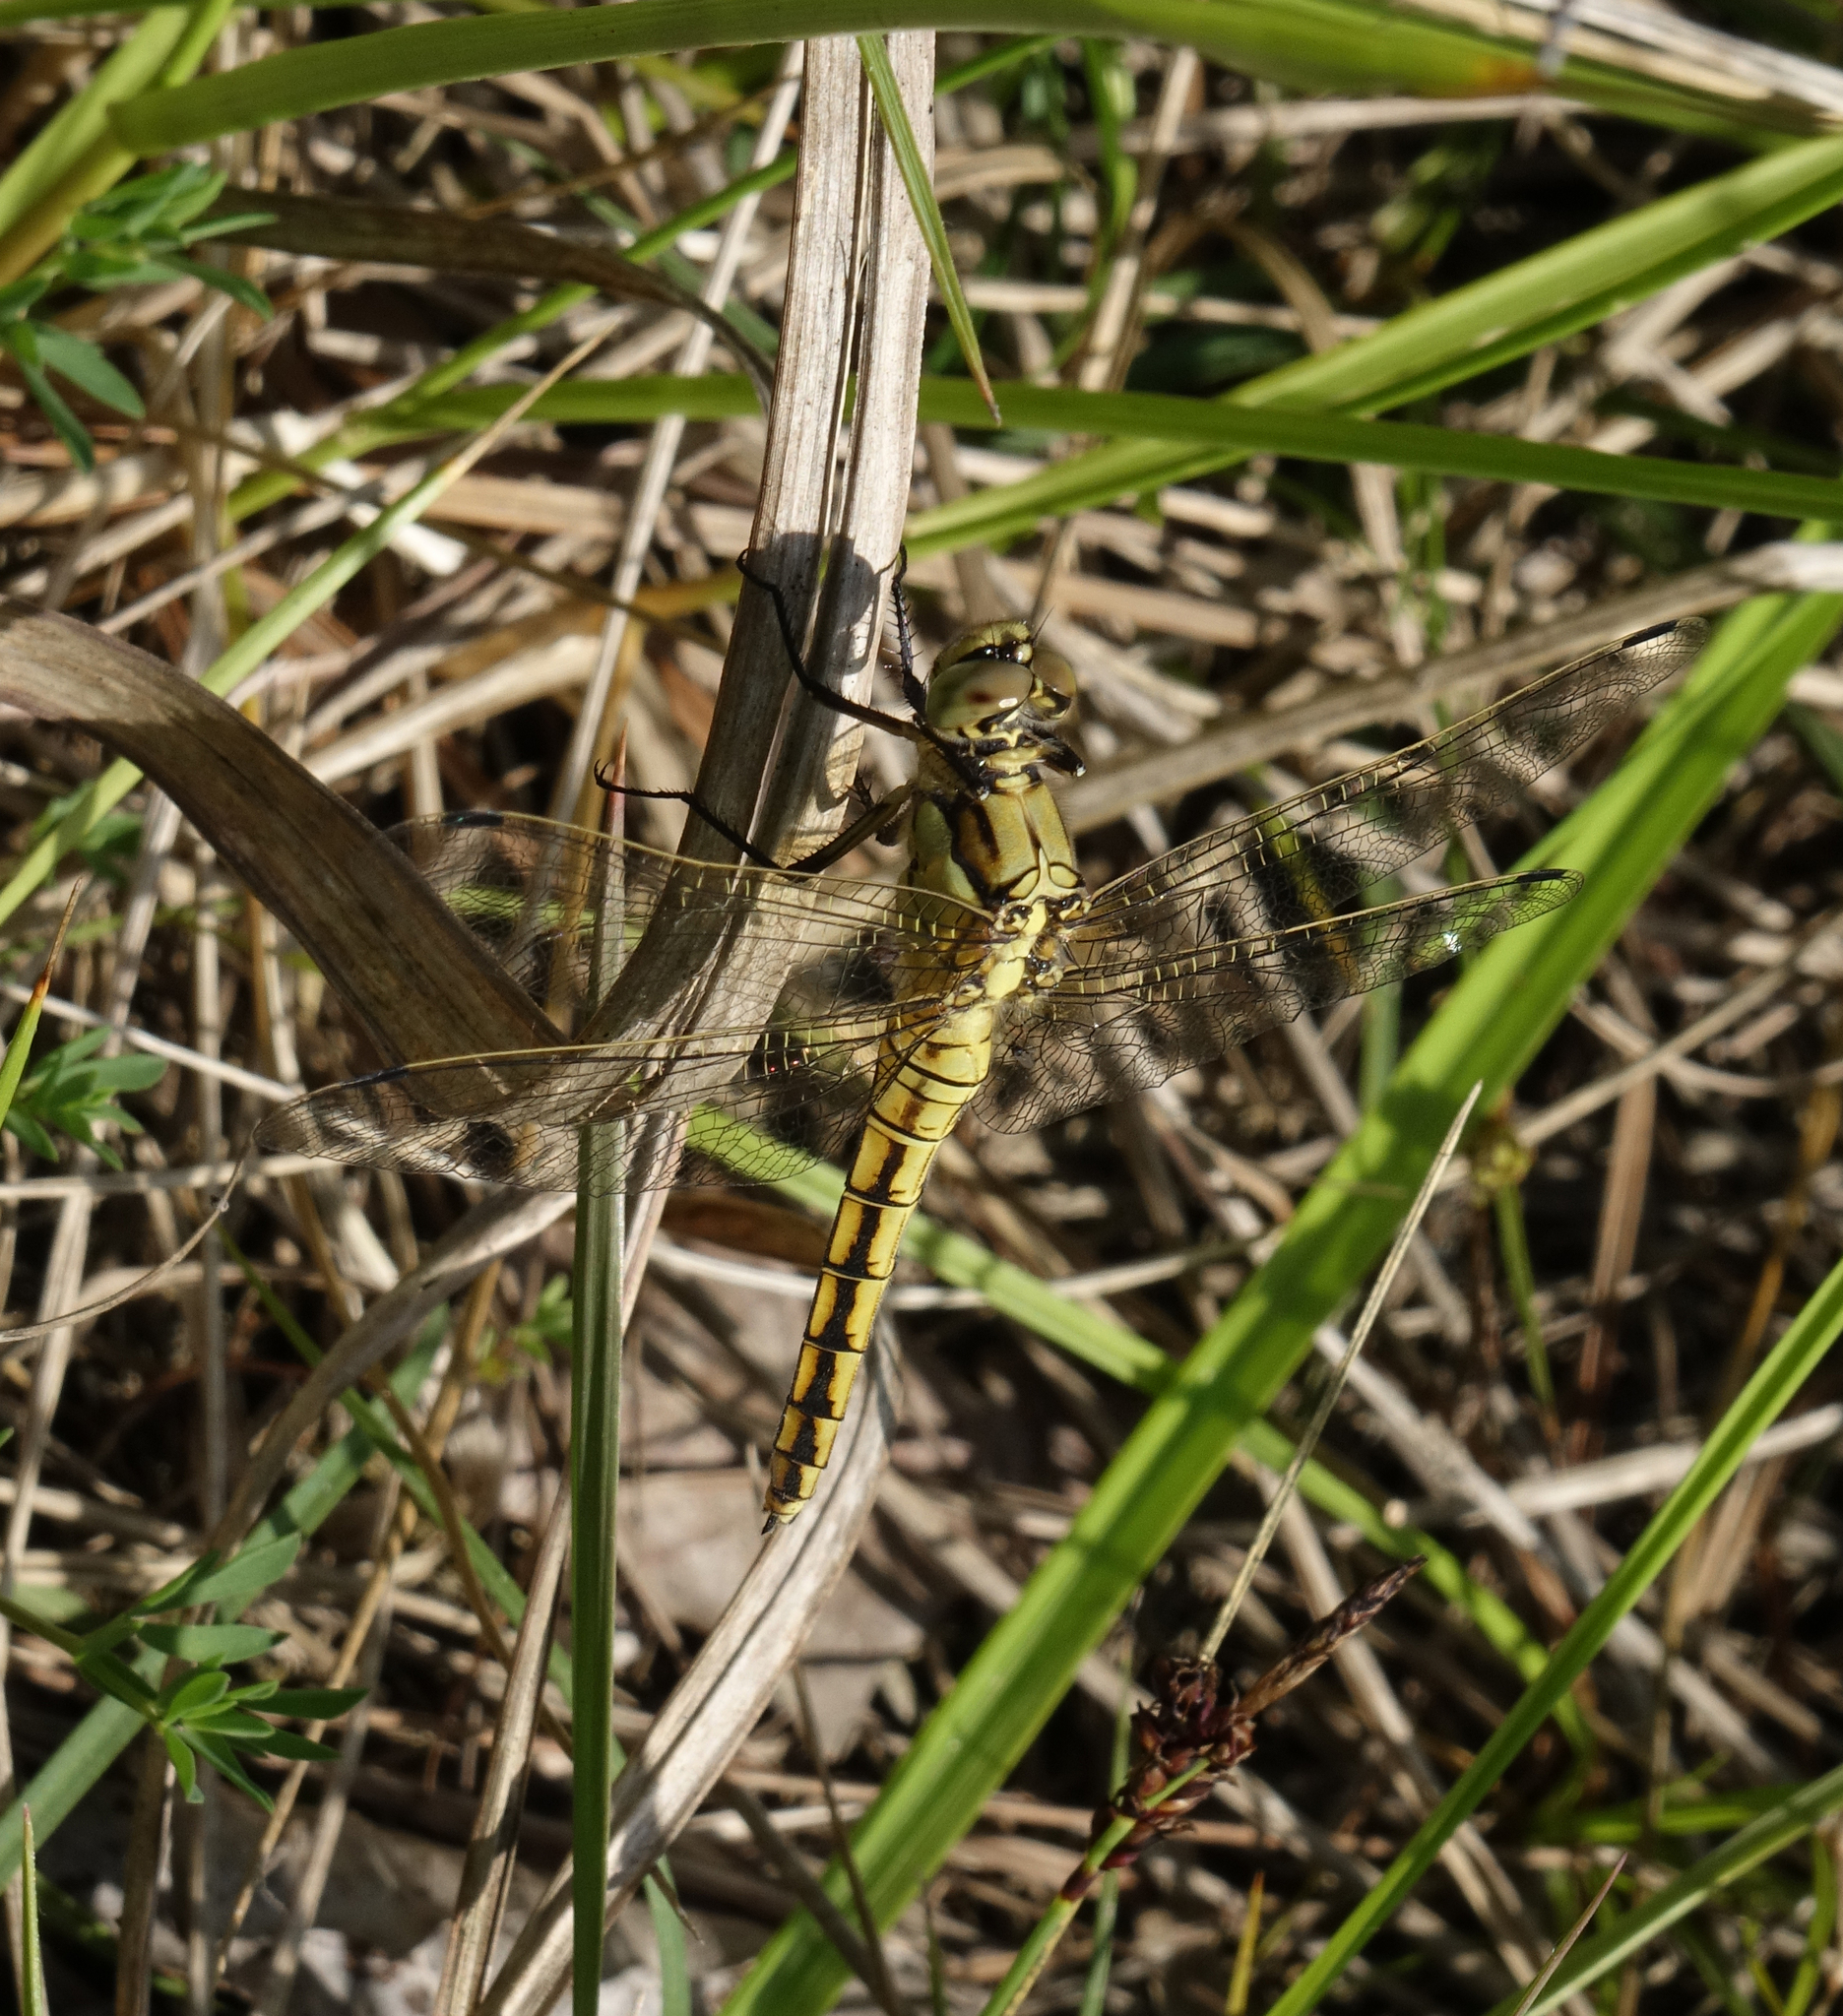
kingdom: Animalia
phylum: Arthropoda
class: Insecta
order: Odonata
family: Libellulidae
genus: Orthetrum
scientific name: Orthetrum cancellatum
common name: Black-tailed skimmer
